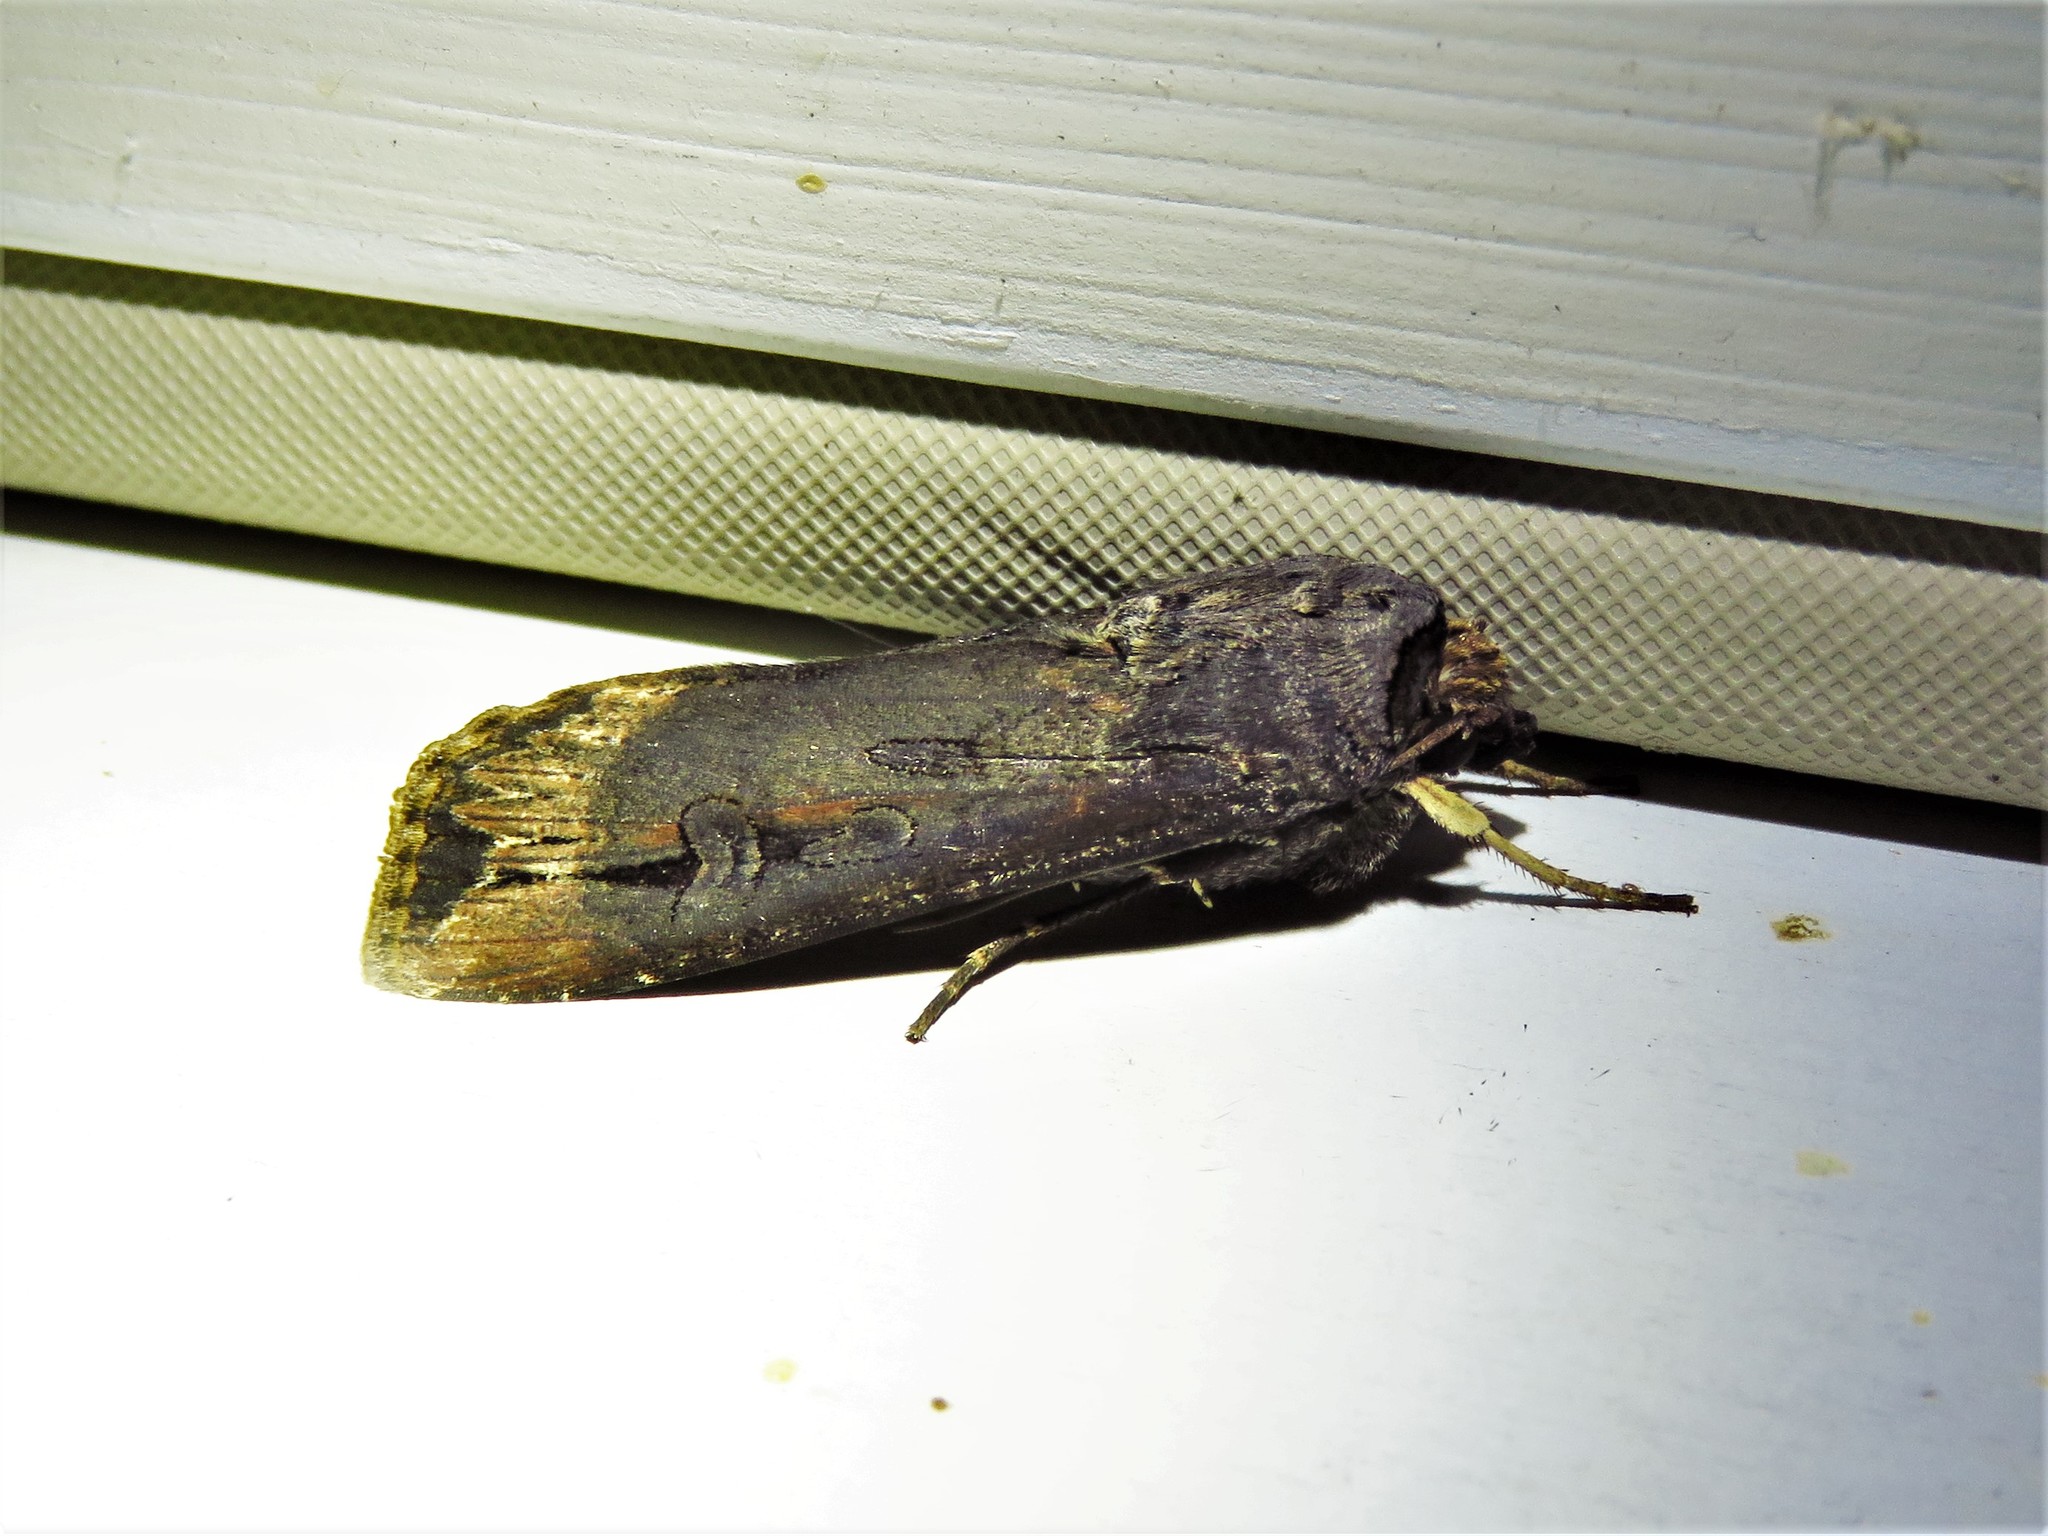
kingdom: Animalia
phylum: Arthropoda
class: Insecta
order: Lepidoptera
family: Noctuidae
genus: Agrotis
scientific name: Agrotis ipsilon
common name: Dark sword-grass
